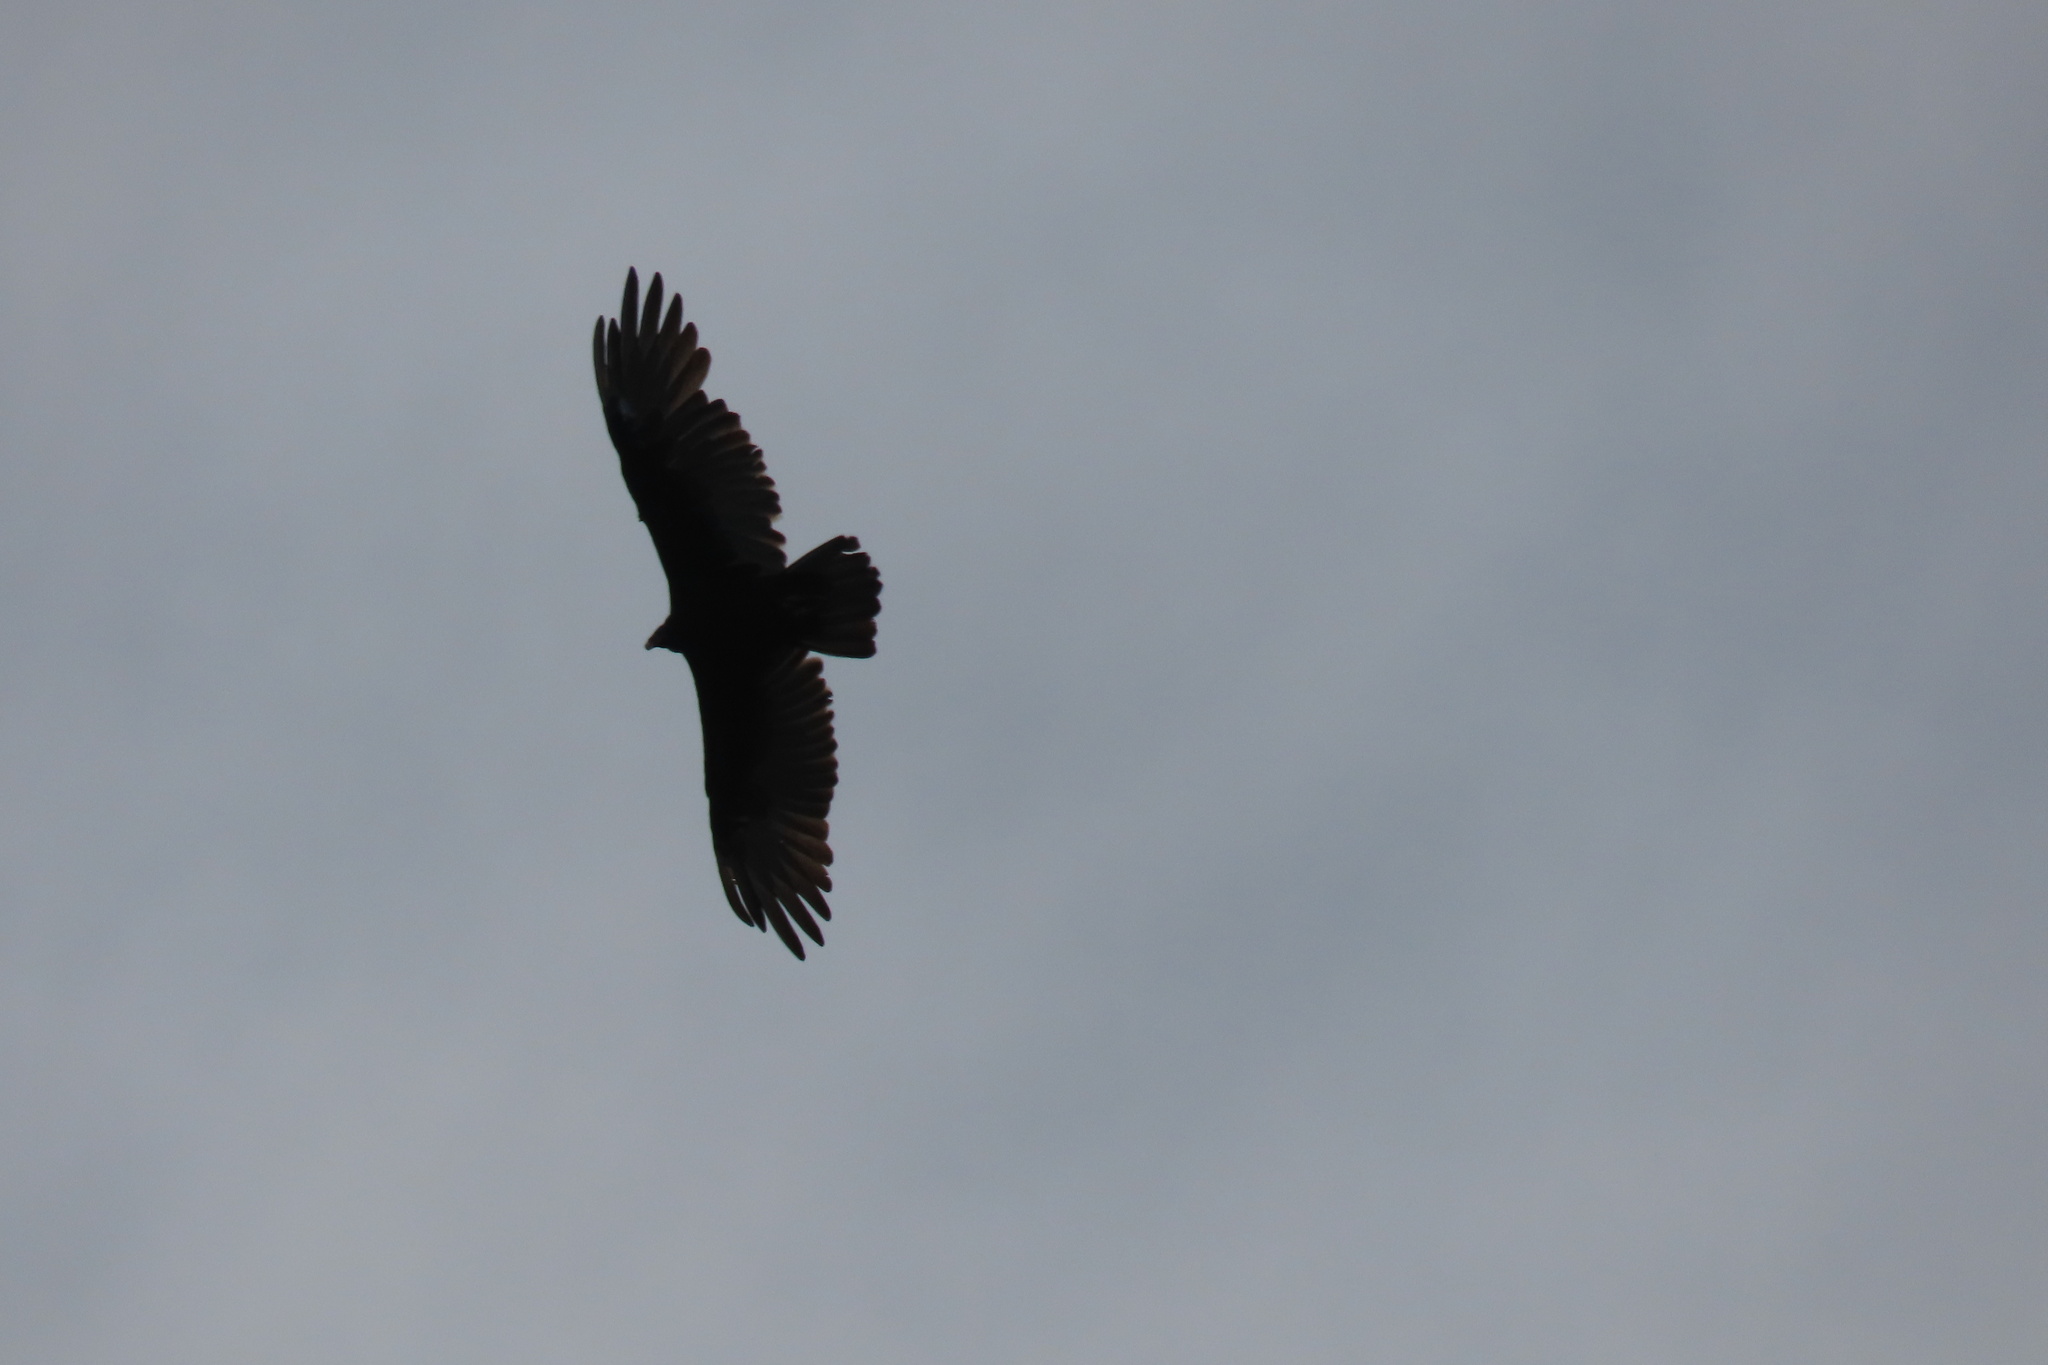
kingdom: Animalia
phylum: Chordata
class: Aves
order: Accipitriformes
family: Cathartidae
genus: Cathartes
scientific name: Cathartes aura
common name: Turkey vulture
